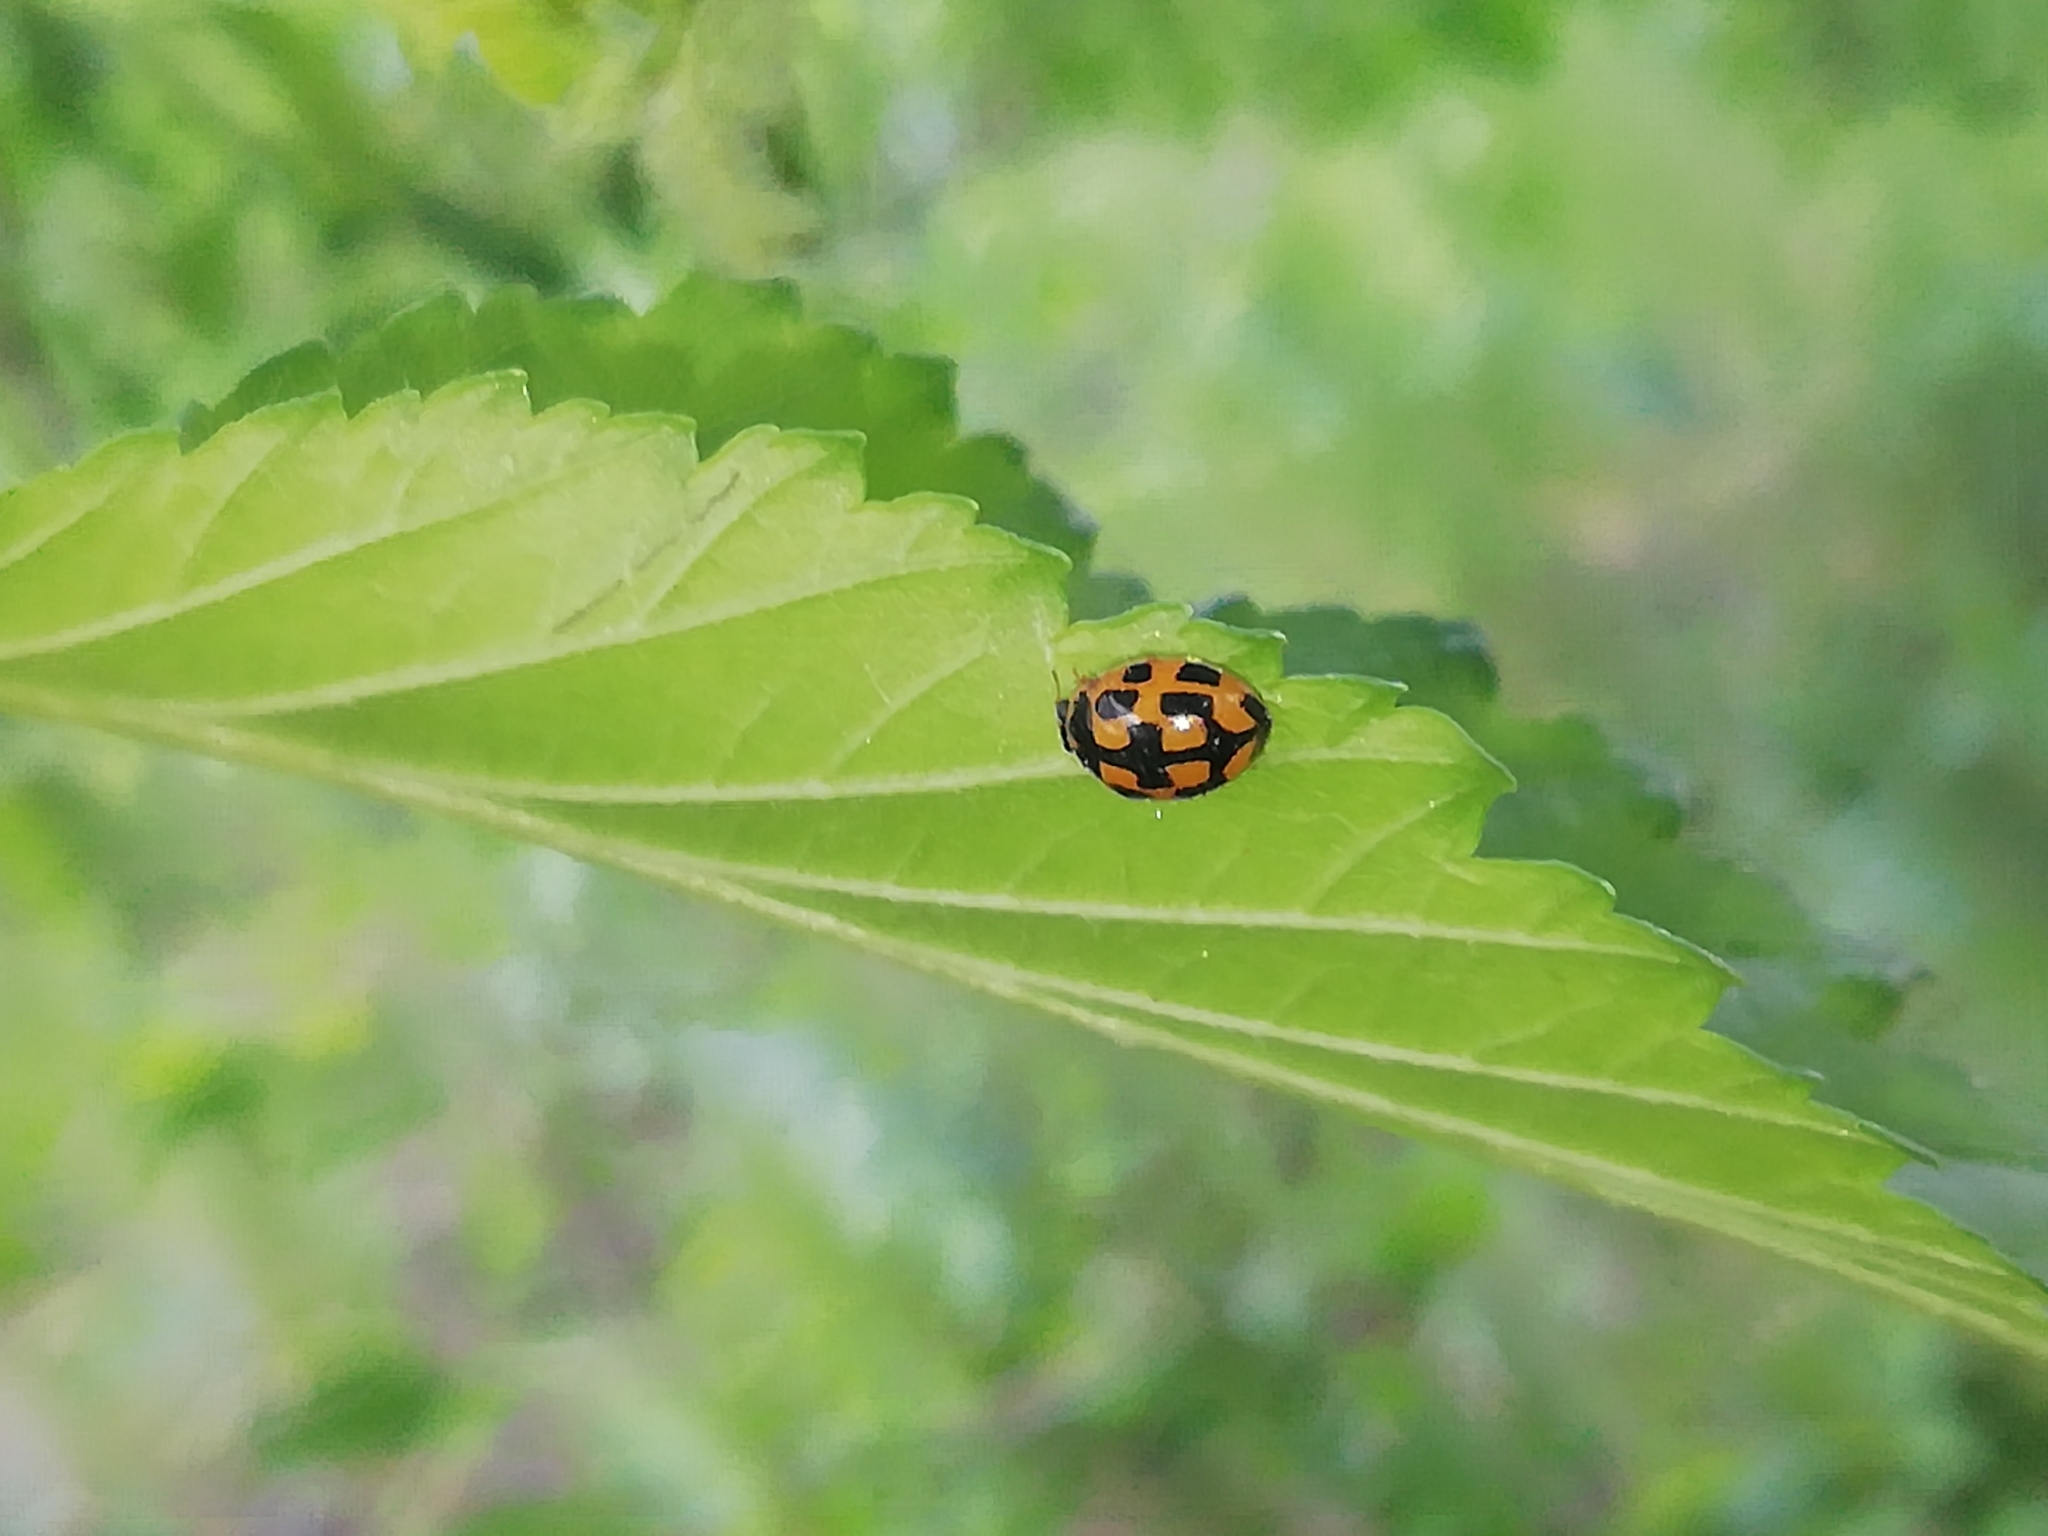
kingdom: Animalia
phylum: Arthropoda
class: Insecta
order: Coleoptera
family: Coccinellidae
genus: Propylaea
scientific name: Propylaea quatuordecimpunctata
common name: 14-spotted ladybird beetle
